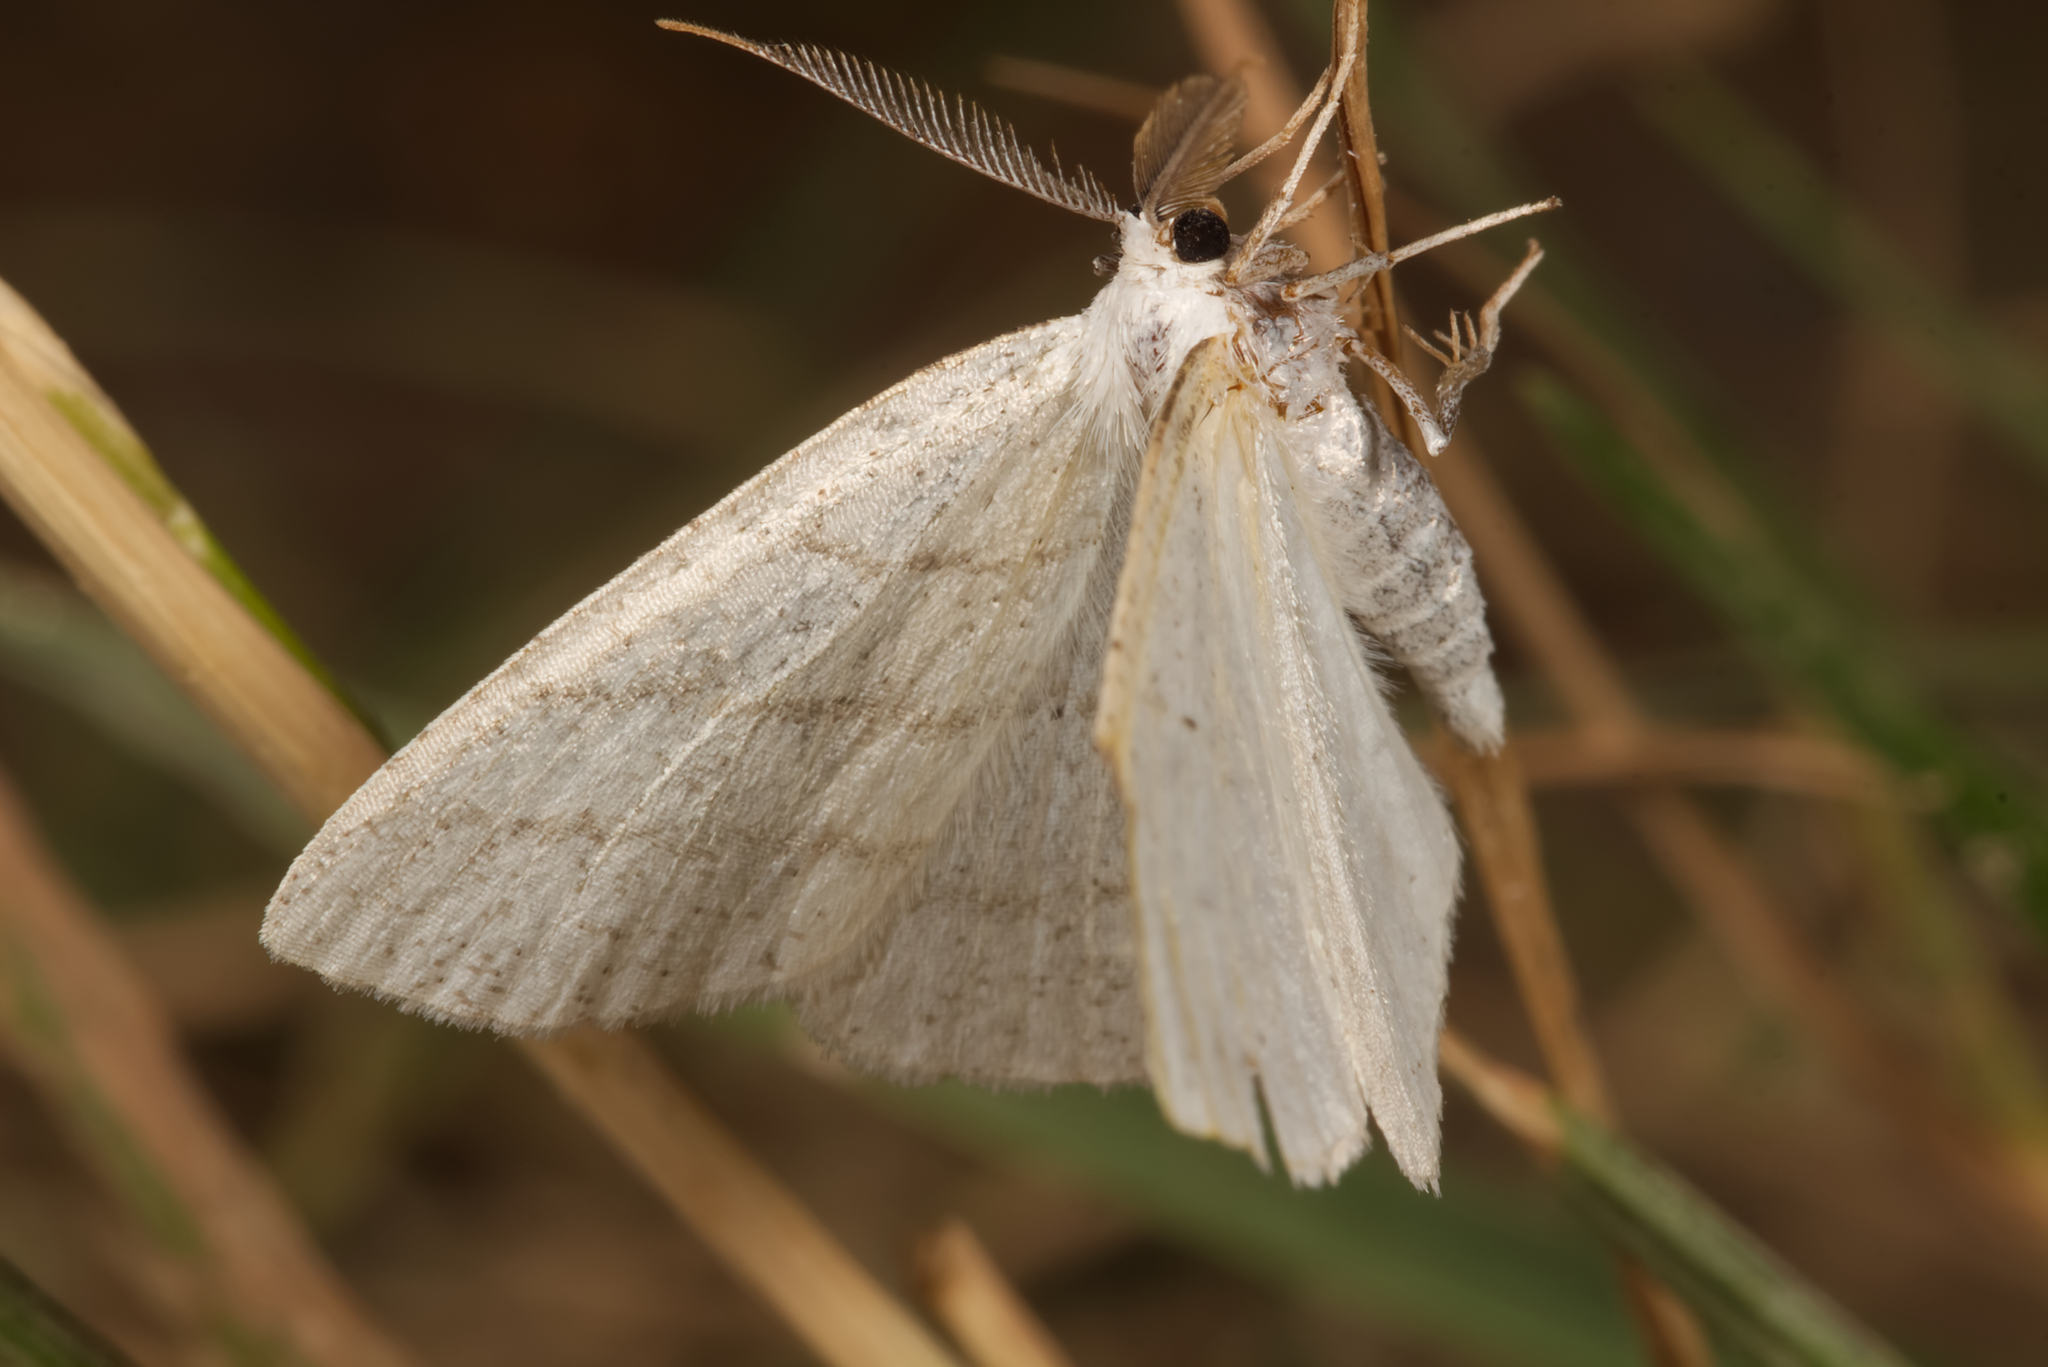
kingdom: Animalia
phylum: Arthropoda
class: Insecta
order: Lepidoptera
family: Geometridae
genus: Cabera
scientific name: Cabera pusaria
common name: Common white wave
